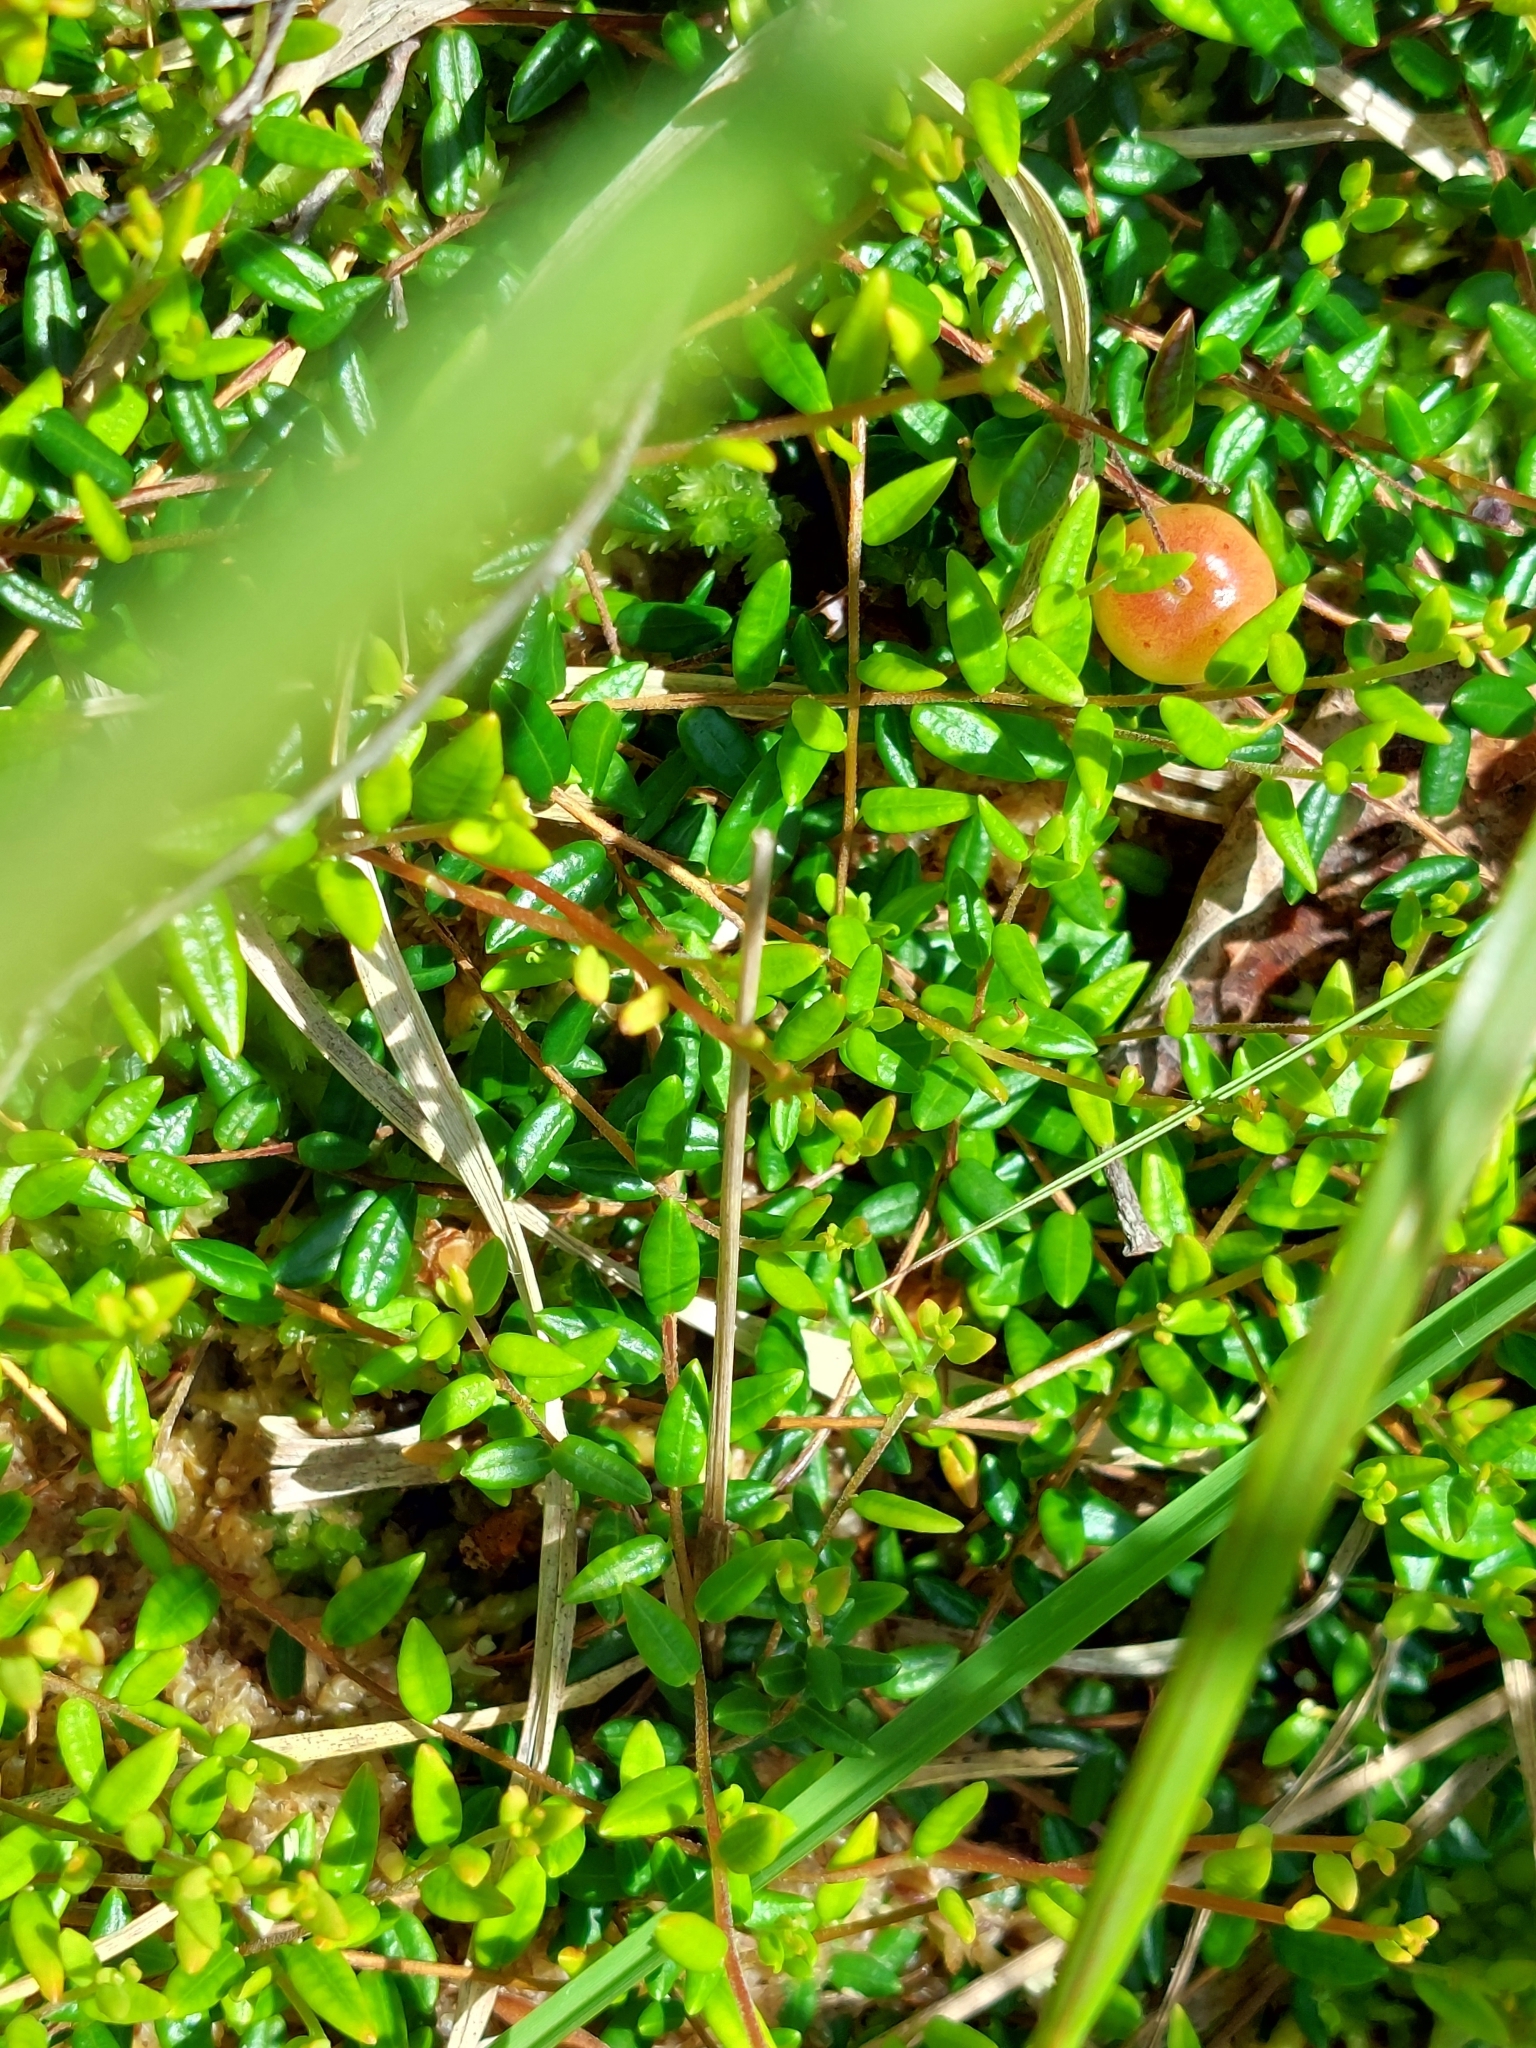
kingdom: Plantae
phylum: Tracheophyta
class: Magnoliopsida
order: Ericales
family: Ericaceae
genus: Vaccinium
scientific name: Vaccinium oxycoccos
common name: Cranberry
